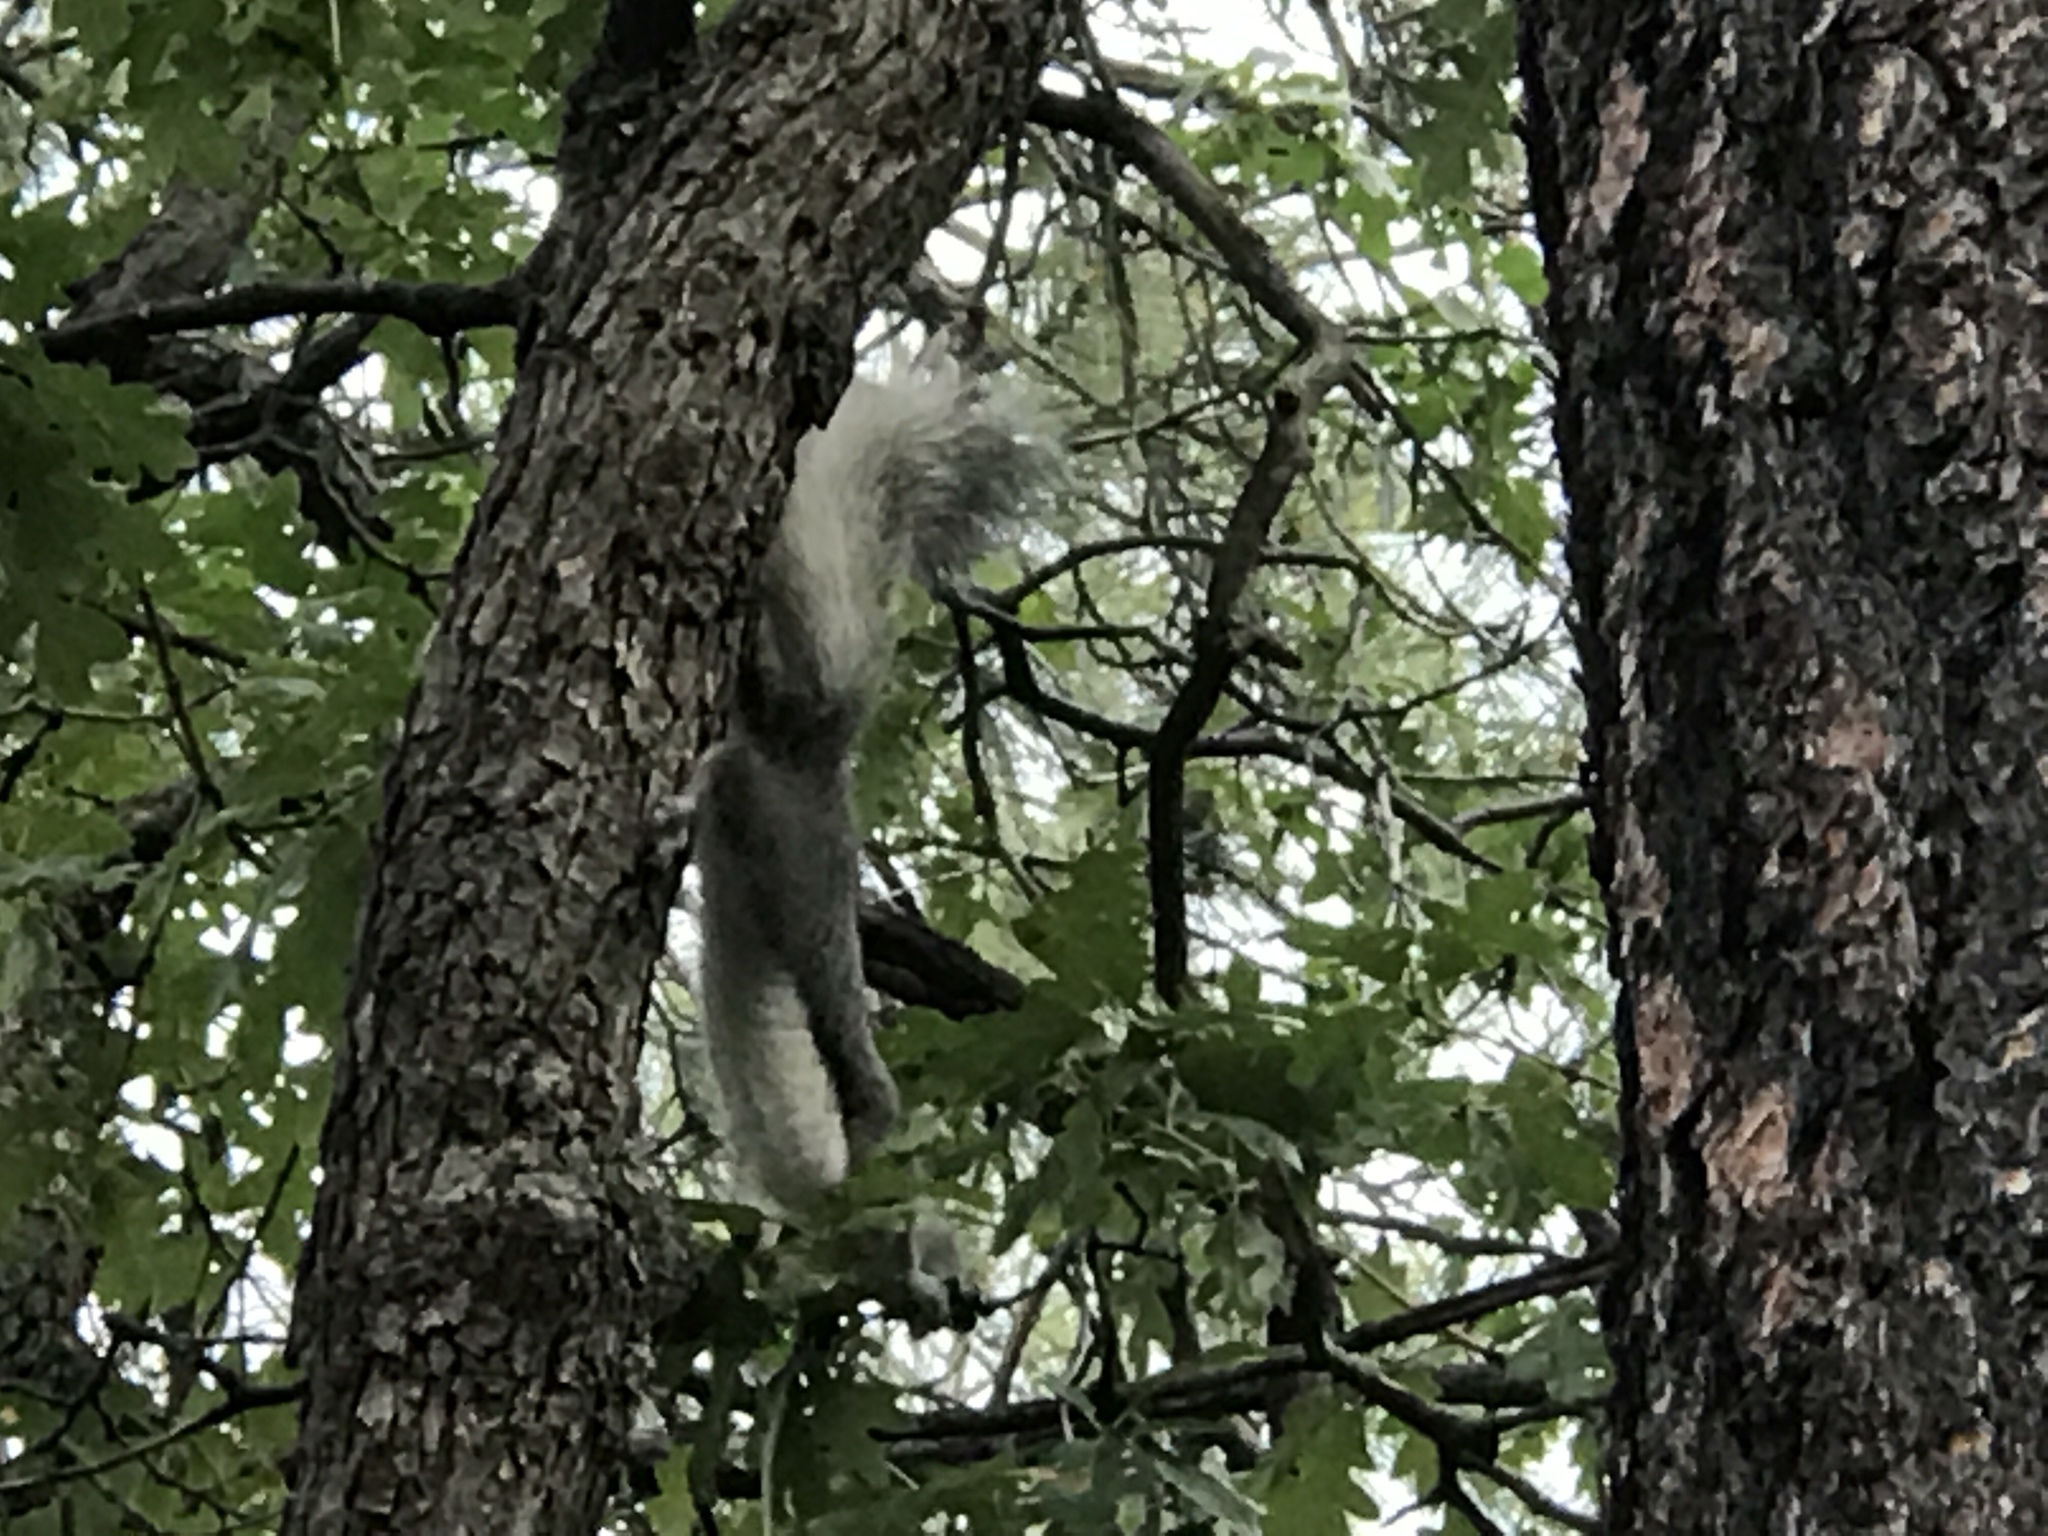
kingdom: Animalia
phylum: Chordata
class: Mammalia
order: Rodentia
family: Sciuridae
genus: Sciurus
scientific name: Sciurus aberti
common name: Abert's squirrel
